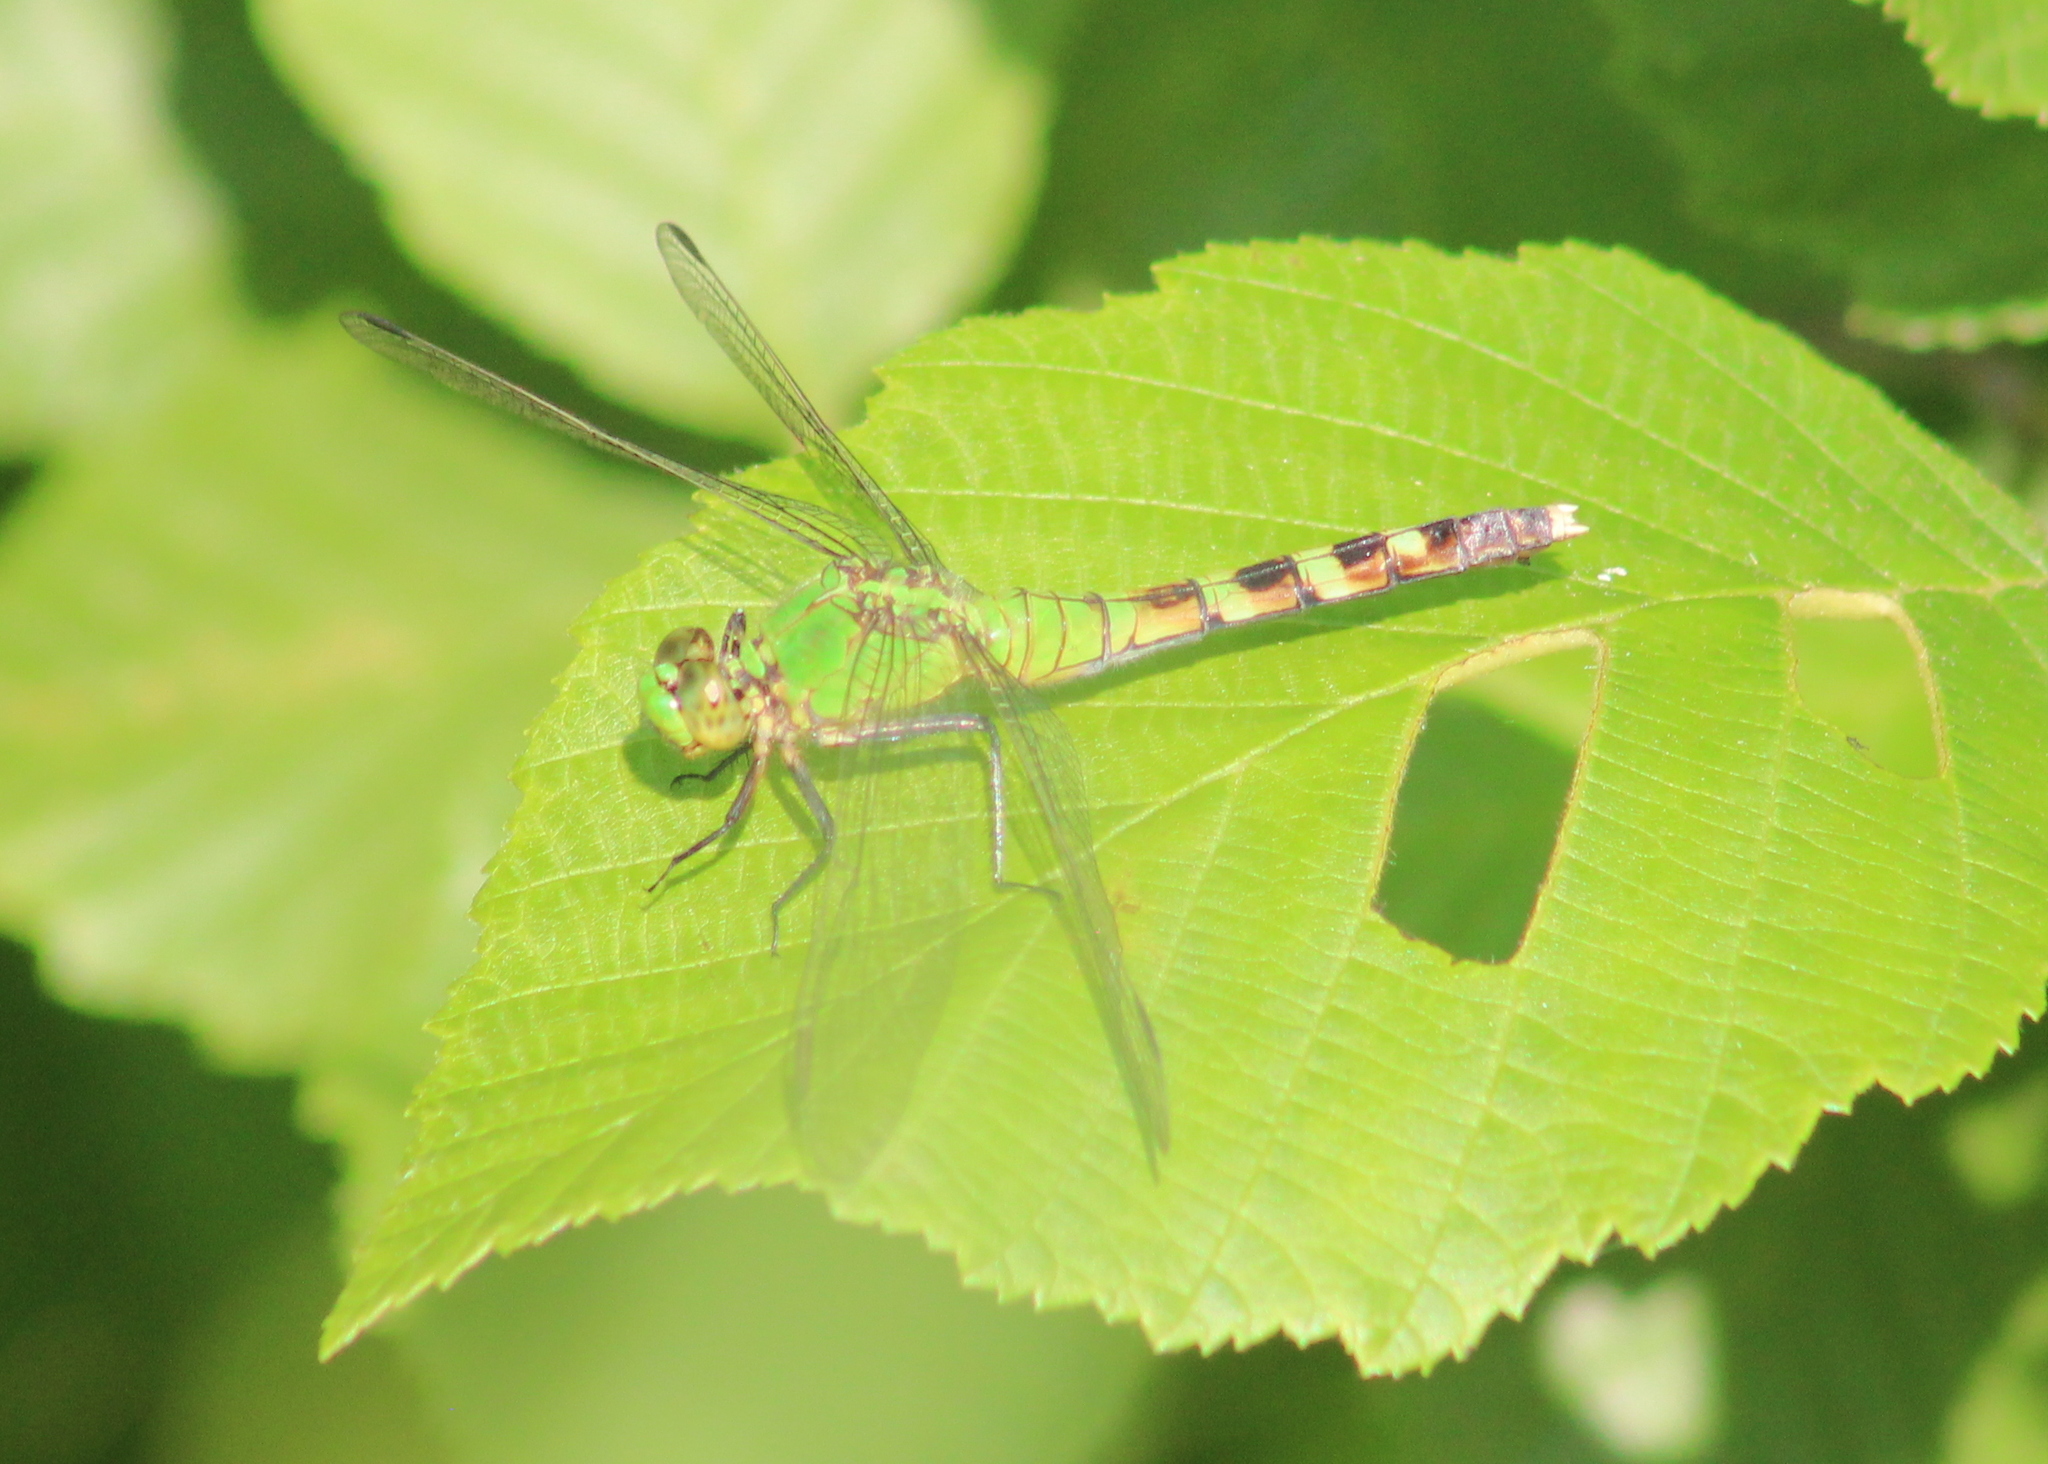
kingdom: Animalia
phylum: Arthropoda
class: Insecta
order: Odonata
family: Libellulidae
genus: Erythemis
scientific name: Erythemis simplicicollis
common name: Eastern pondhawk
